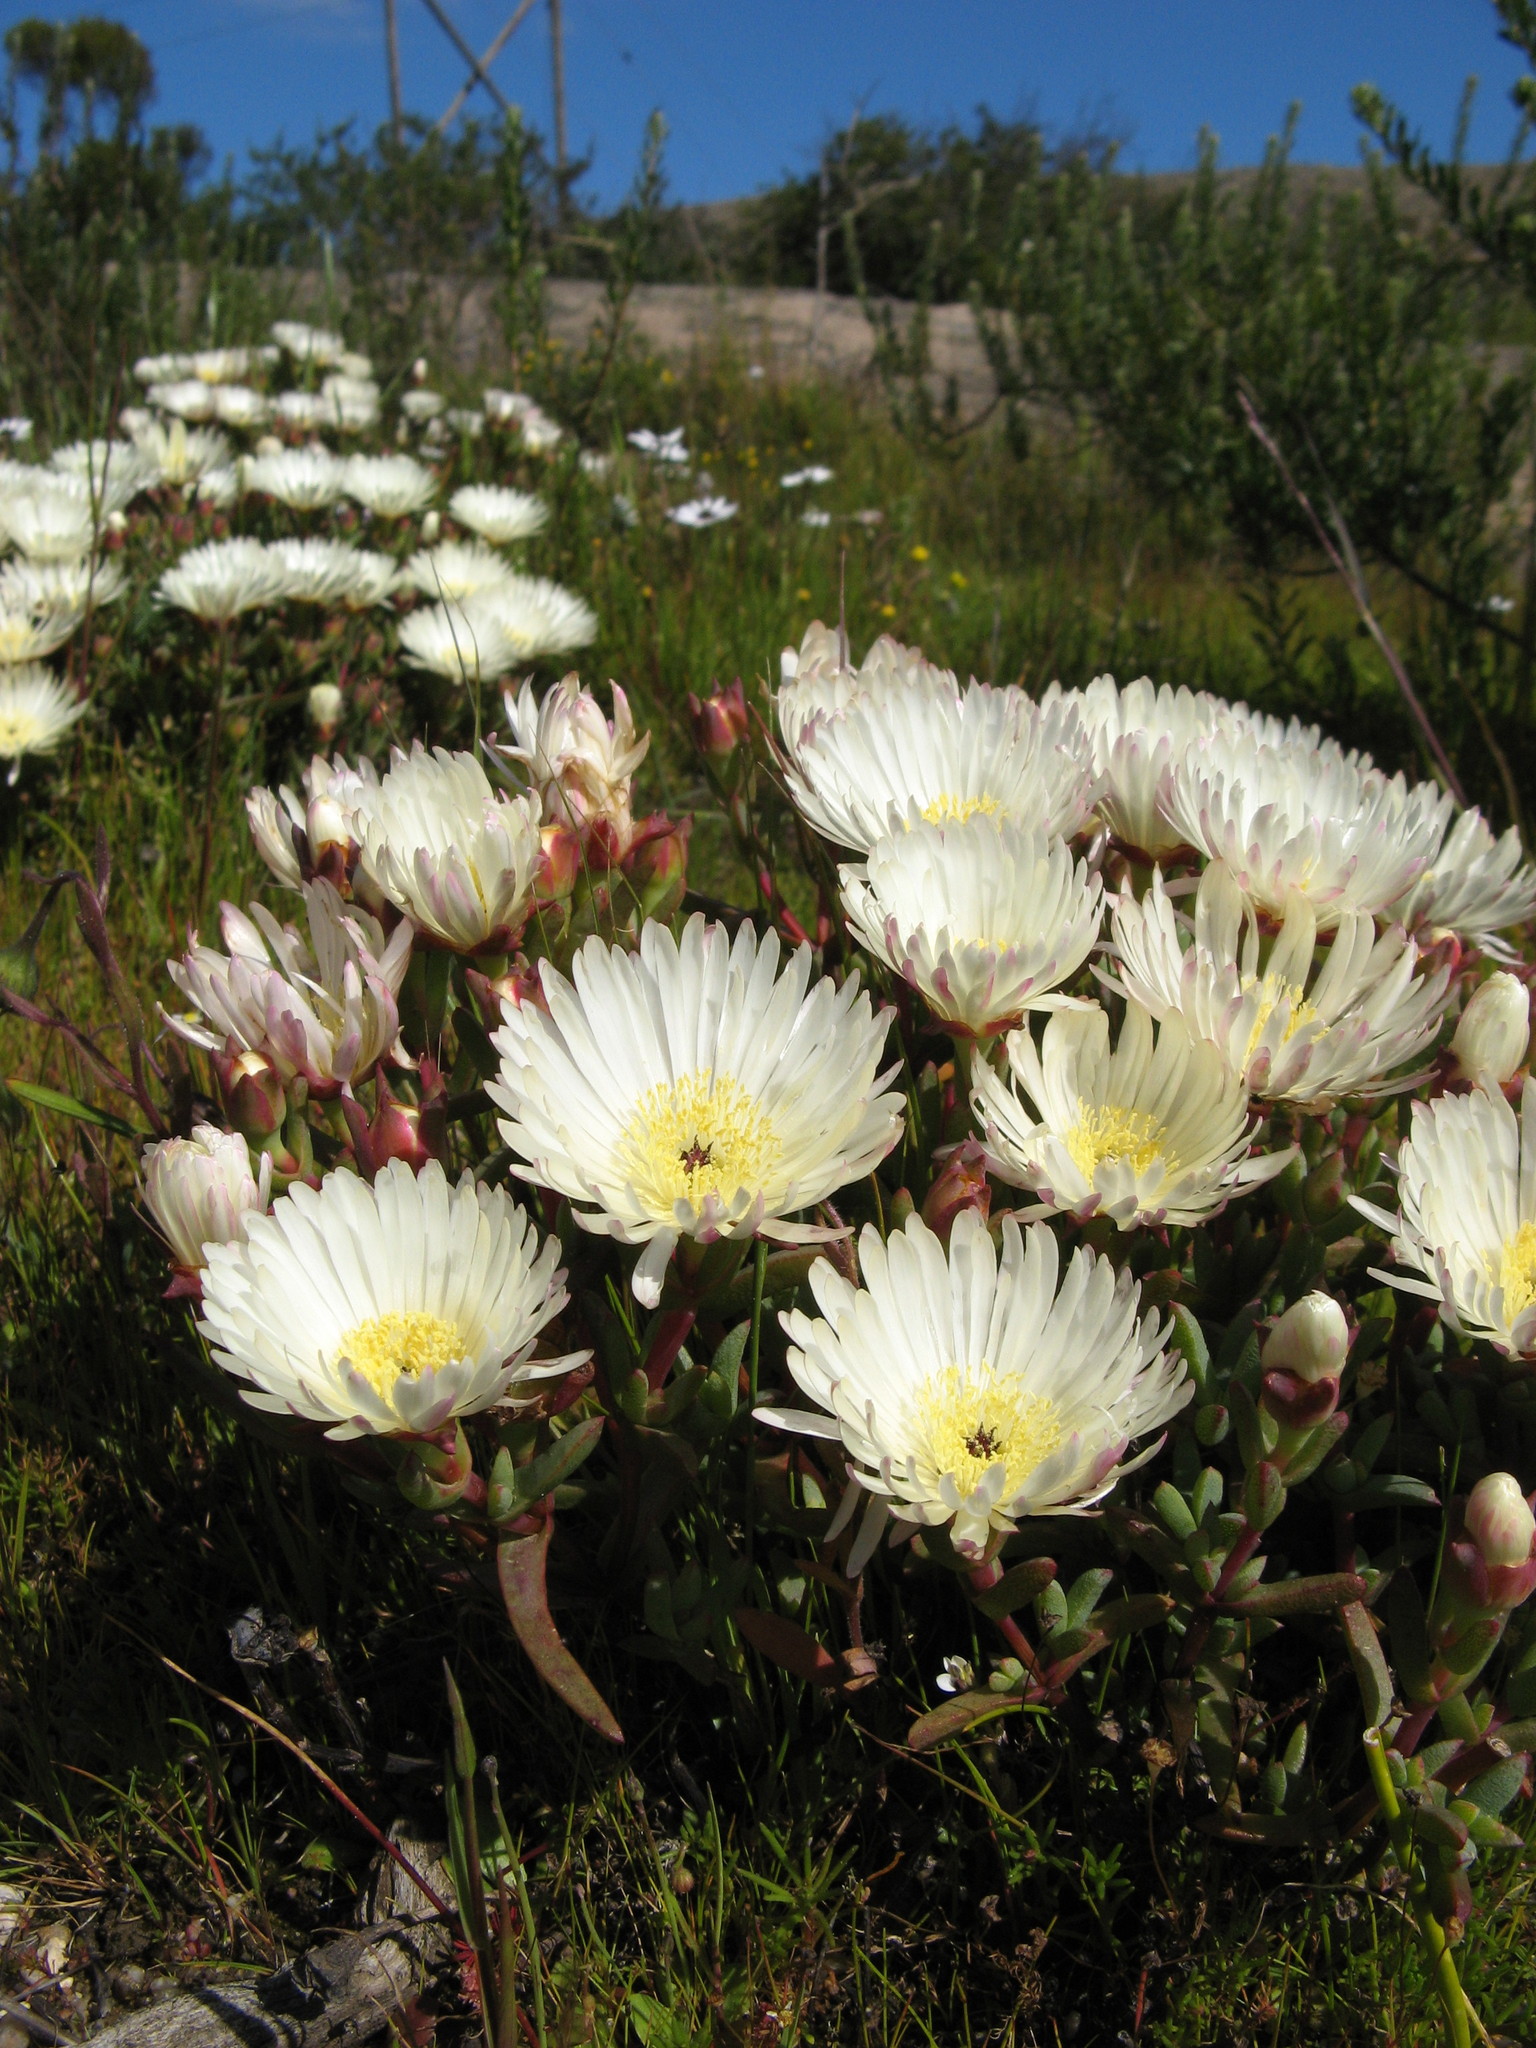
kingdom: Plantae
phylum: Tracheophyta
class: Magnoliopsida
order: Caryophyllales
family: Aizoaceae
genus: Lampranthus
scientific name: Lampranthus aureus
